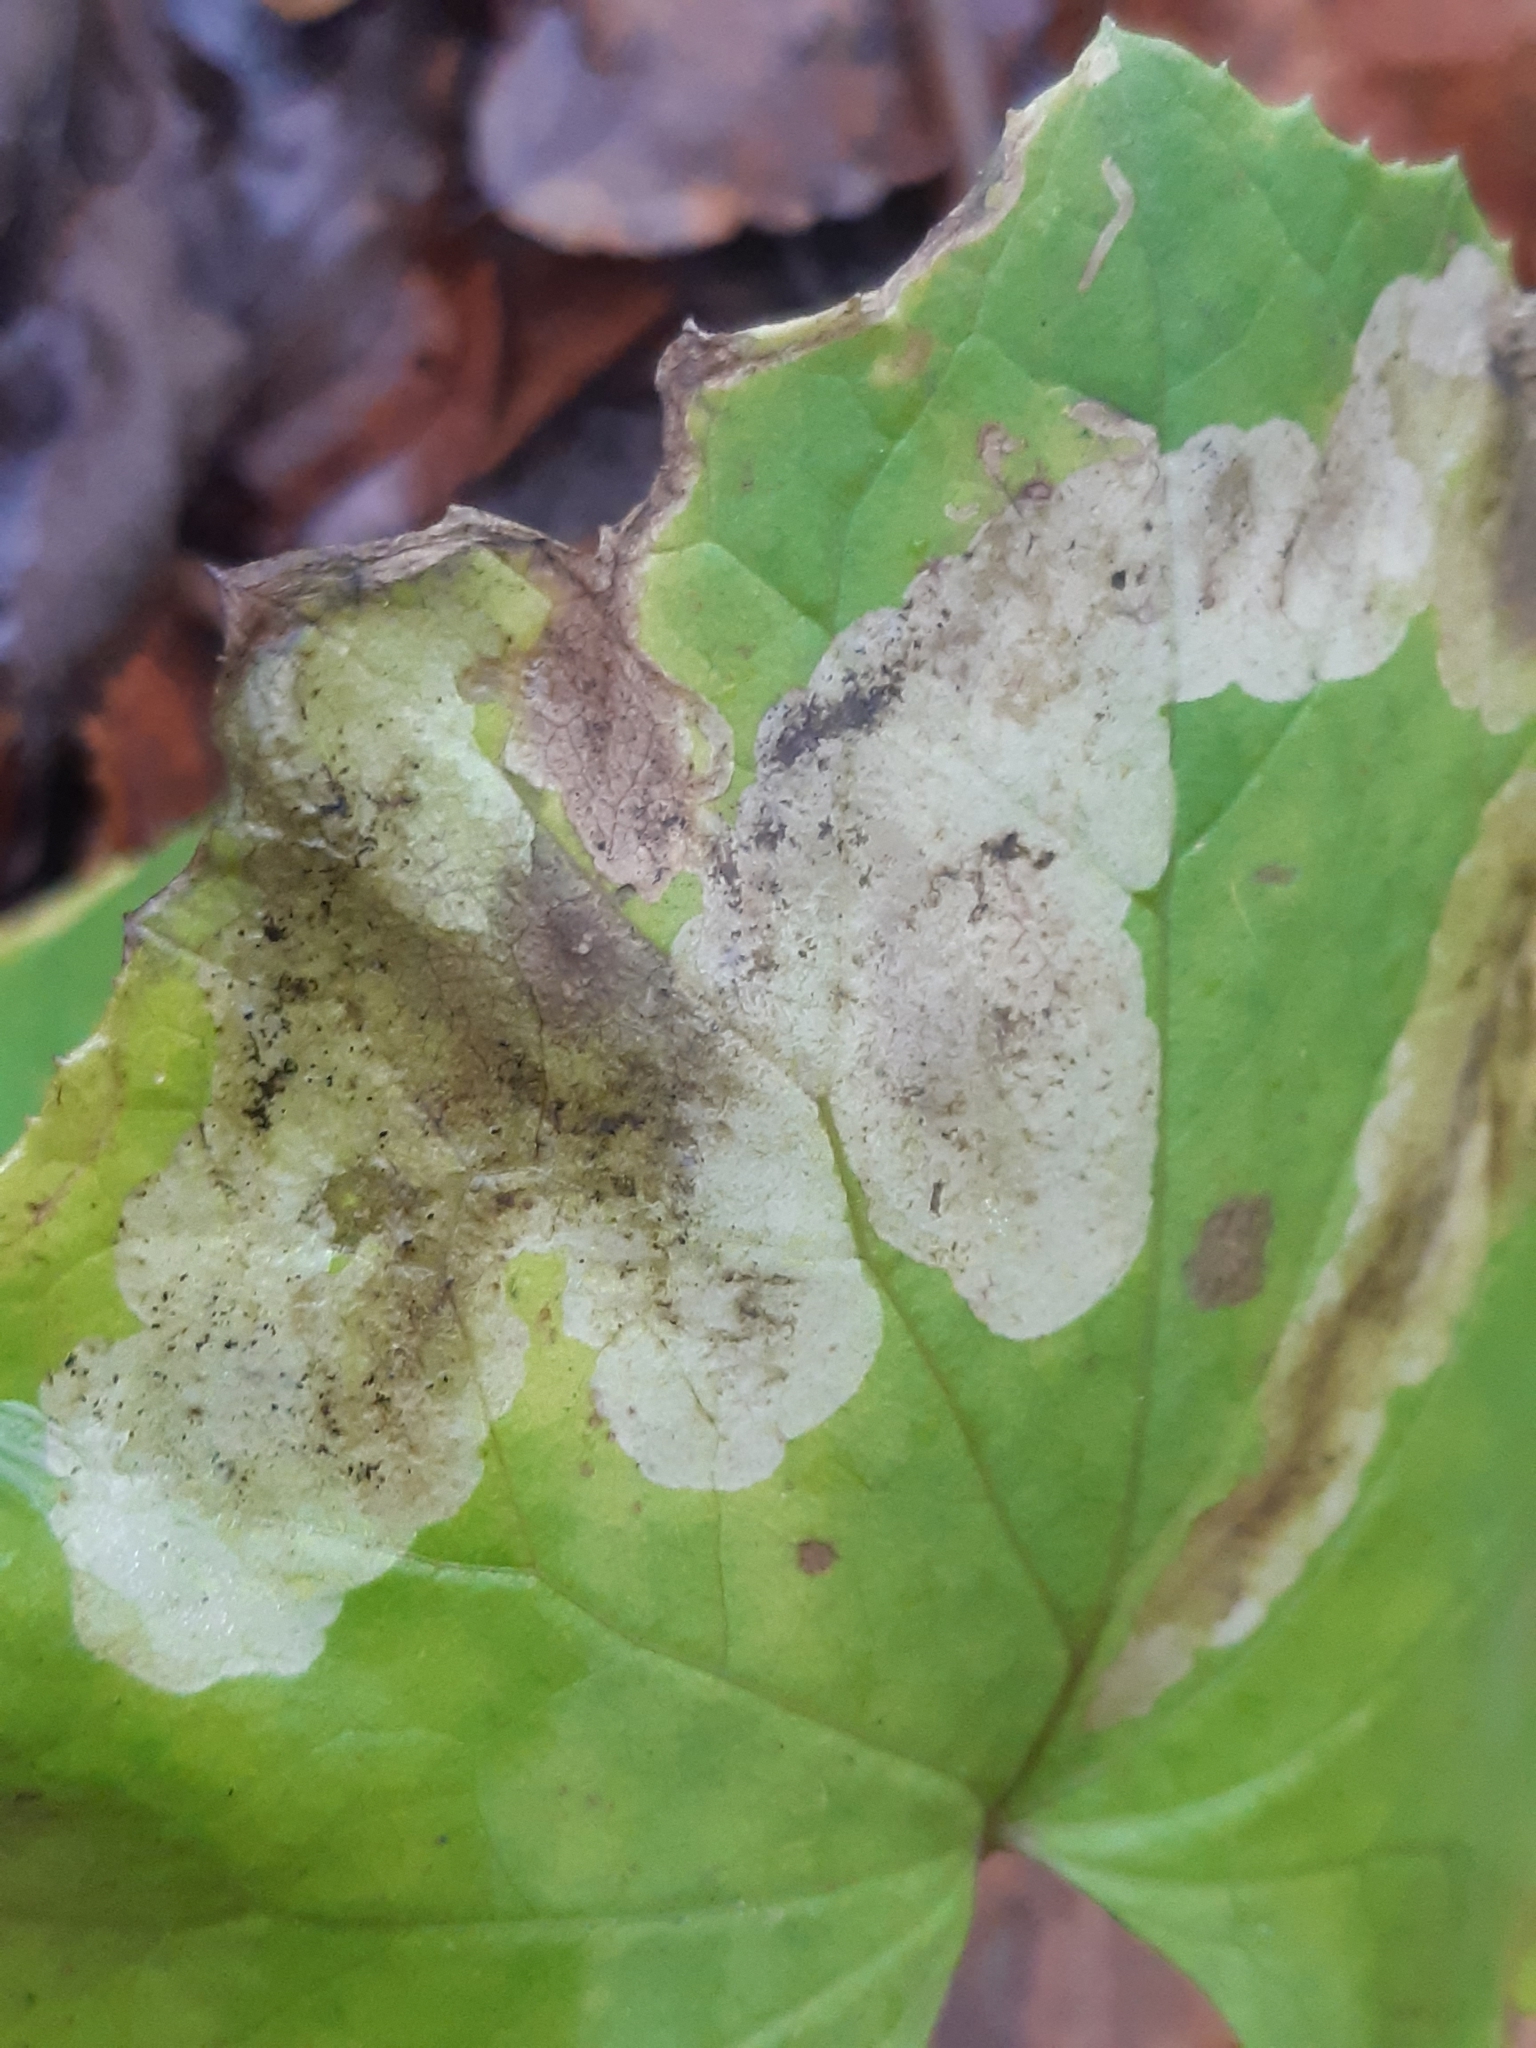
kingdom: Animalia
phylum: Arthropoda
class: Insecta
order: Diptera
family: Tephritidae
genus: Acidia
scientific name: Acidia cognata
